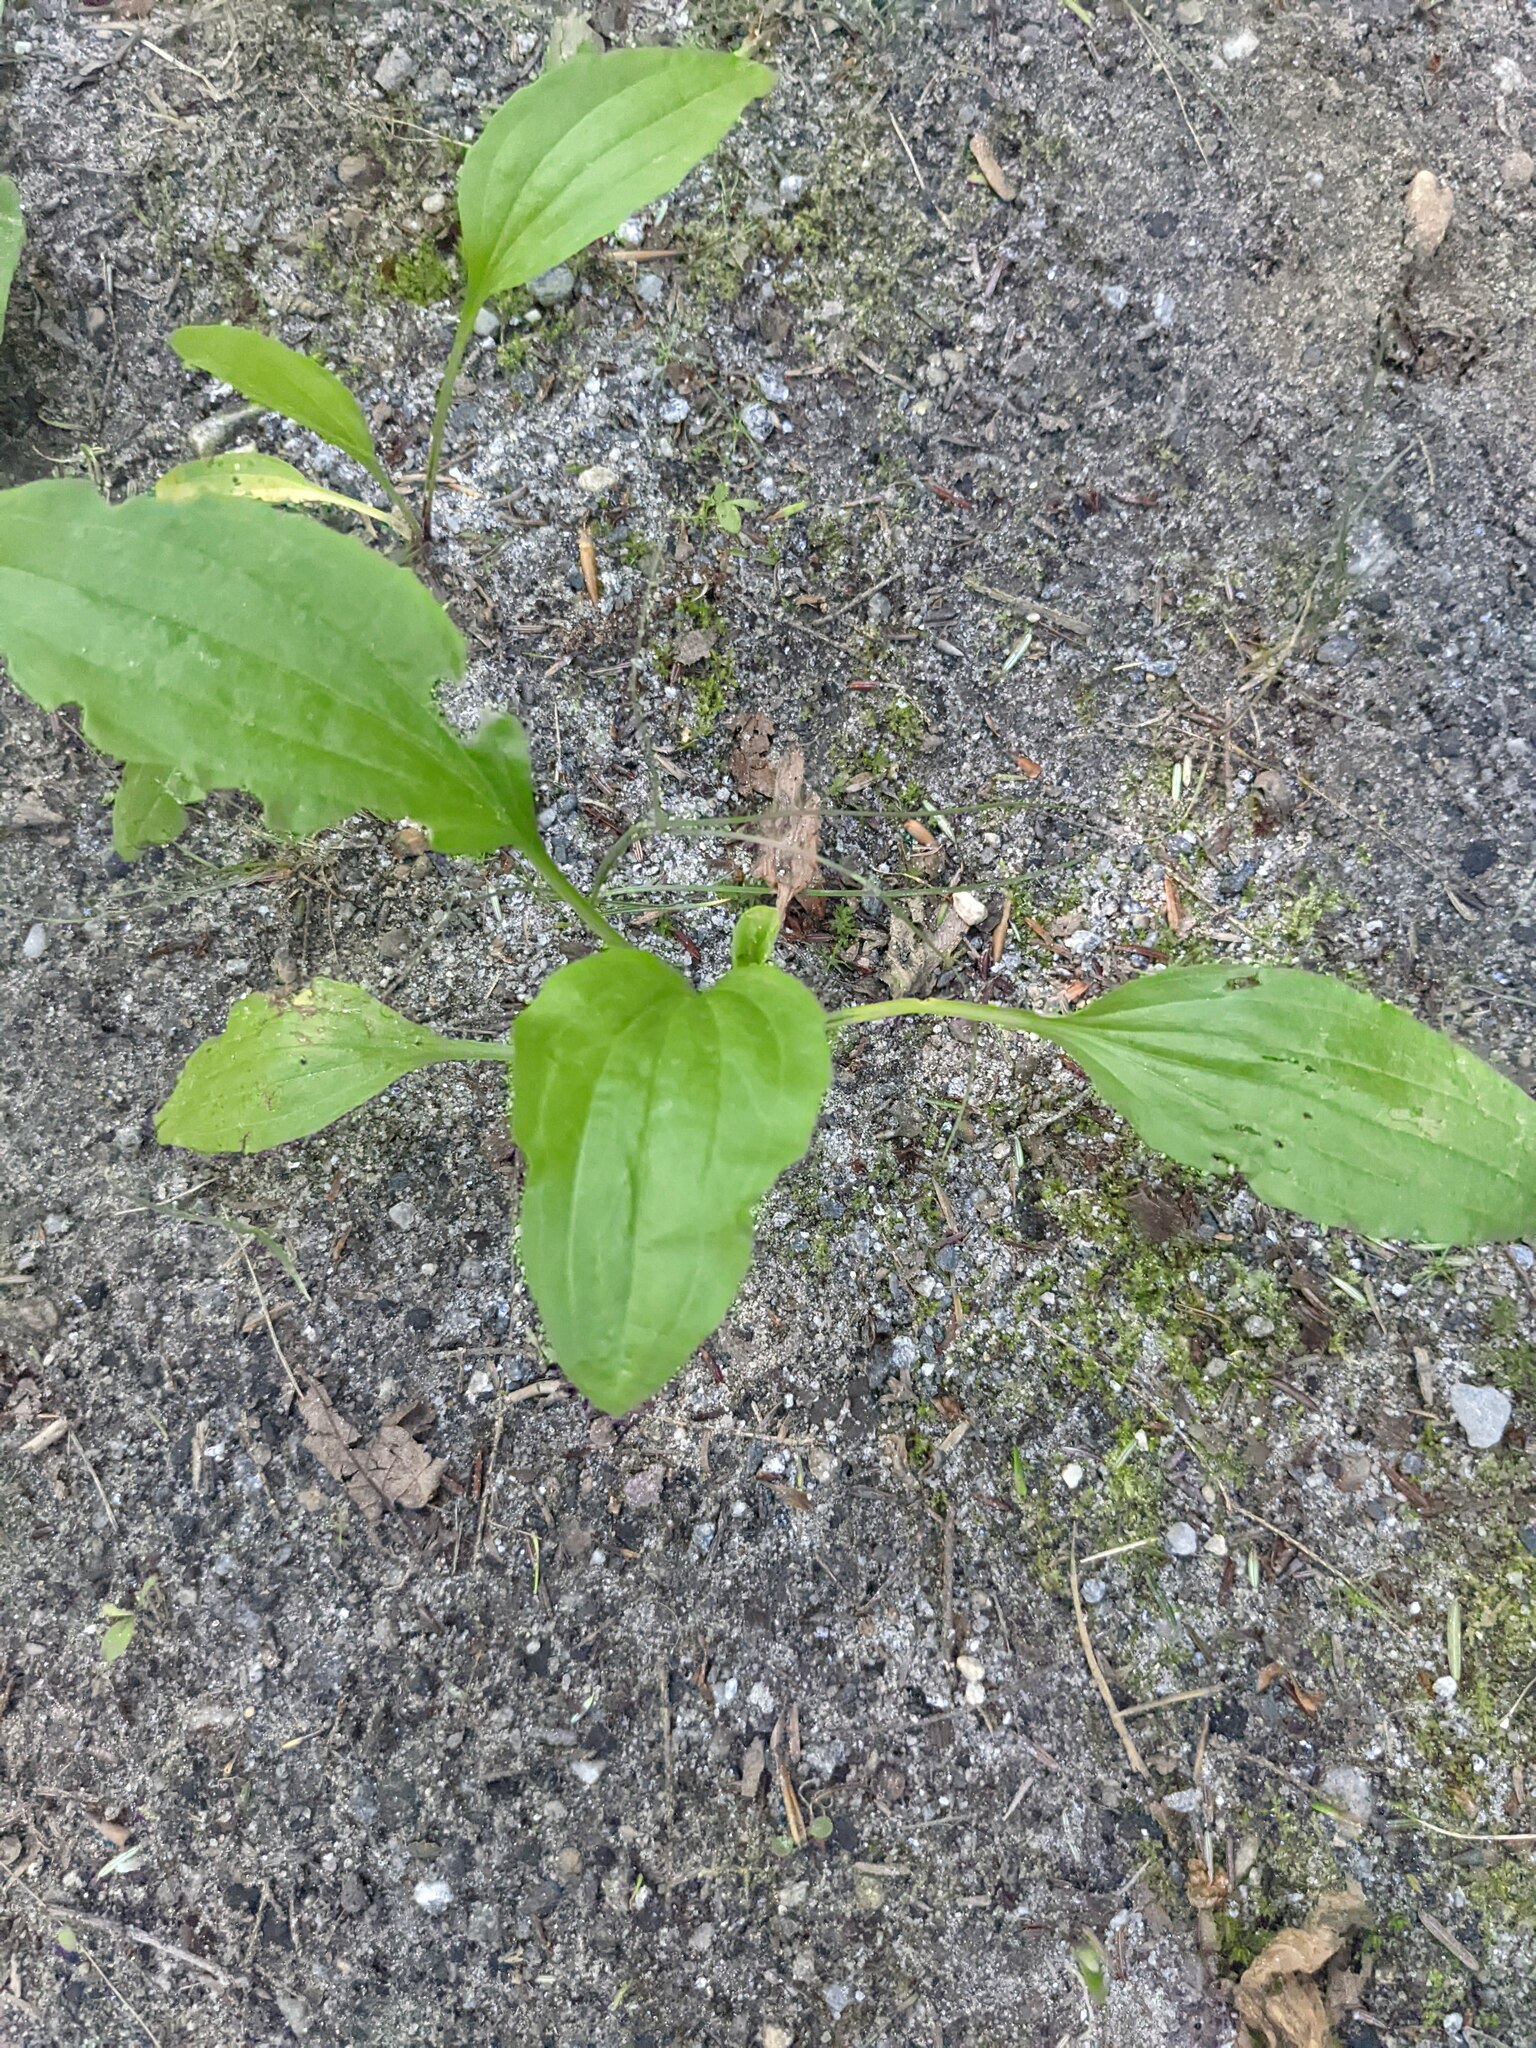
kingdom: Plantae
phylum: Tracheophyta
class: Magnoliopsida
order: Lamiales
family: Plantaginaceae
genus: Plantago
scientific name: Plantago rugelii
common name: American plantain
